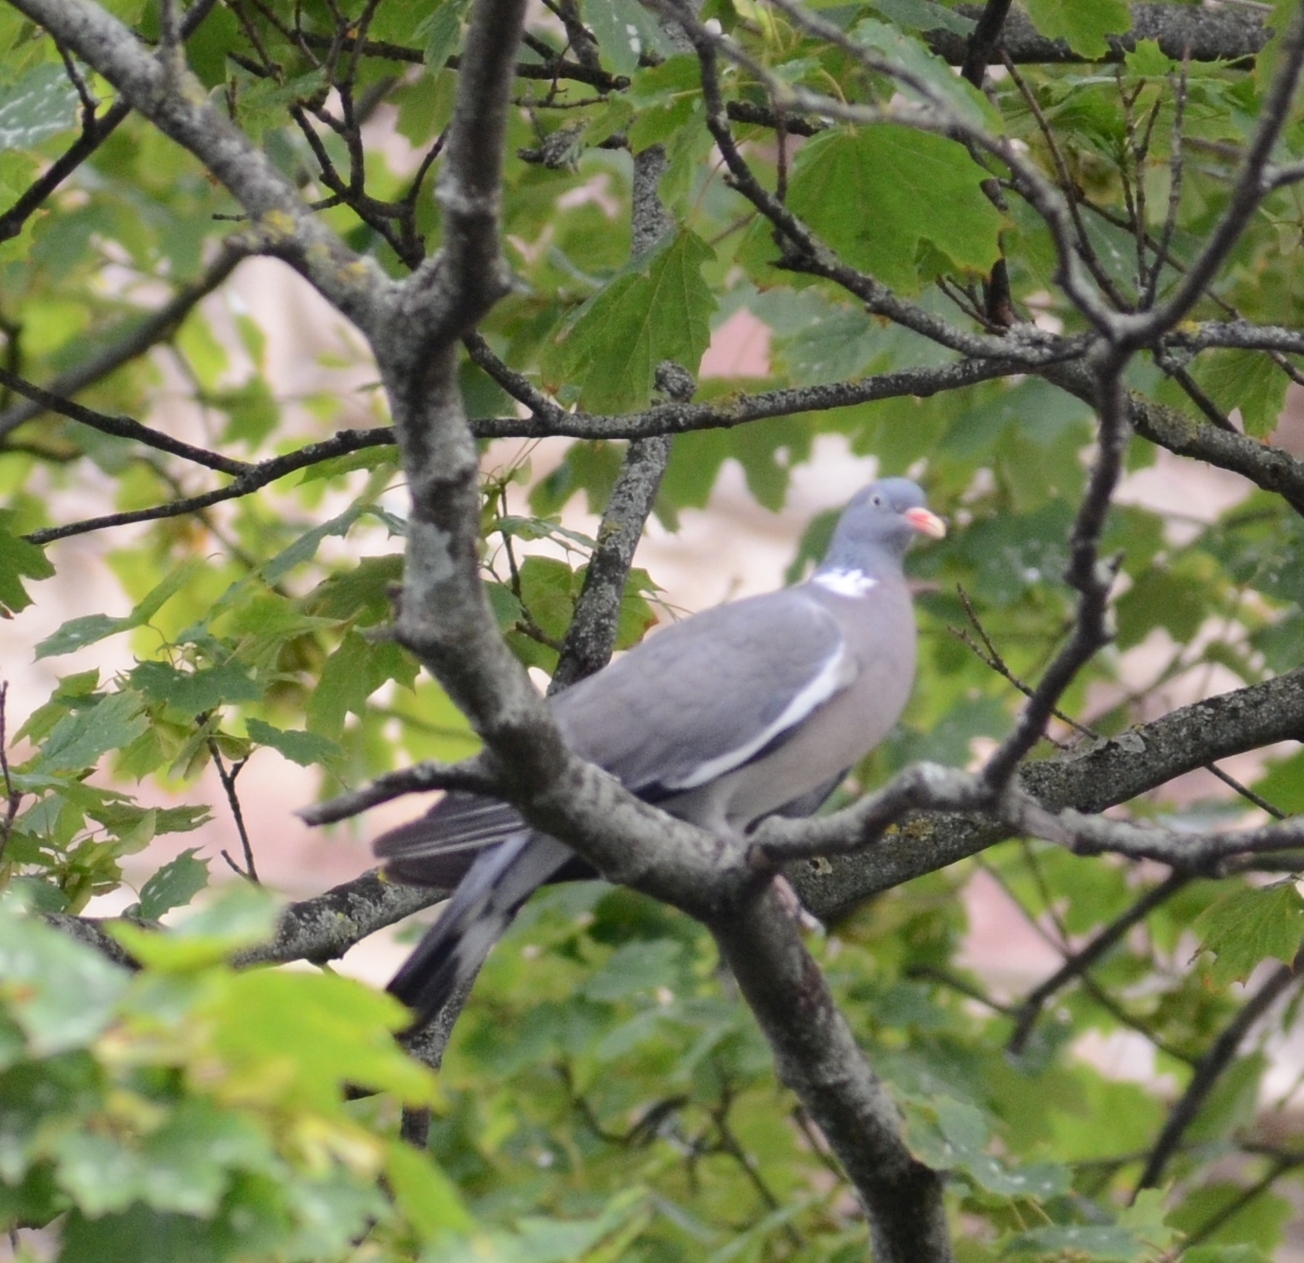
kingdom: Animalia
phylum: Chordata
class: Aves
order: Columbiformes
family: Columbidae
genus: Columba
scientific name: Columba palumbus
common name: Common wood pigeon
